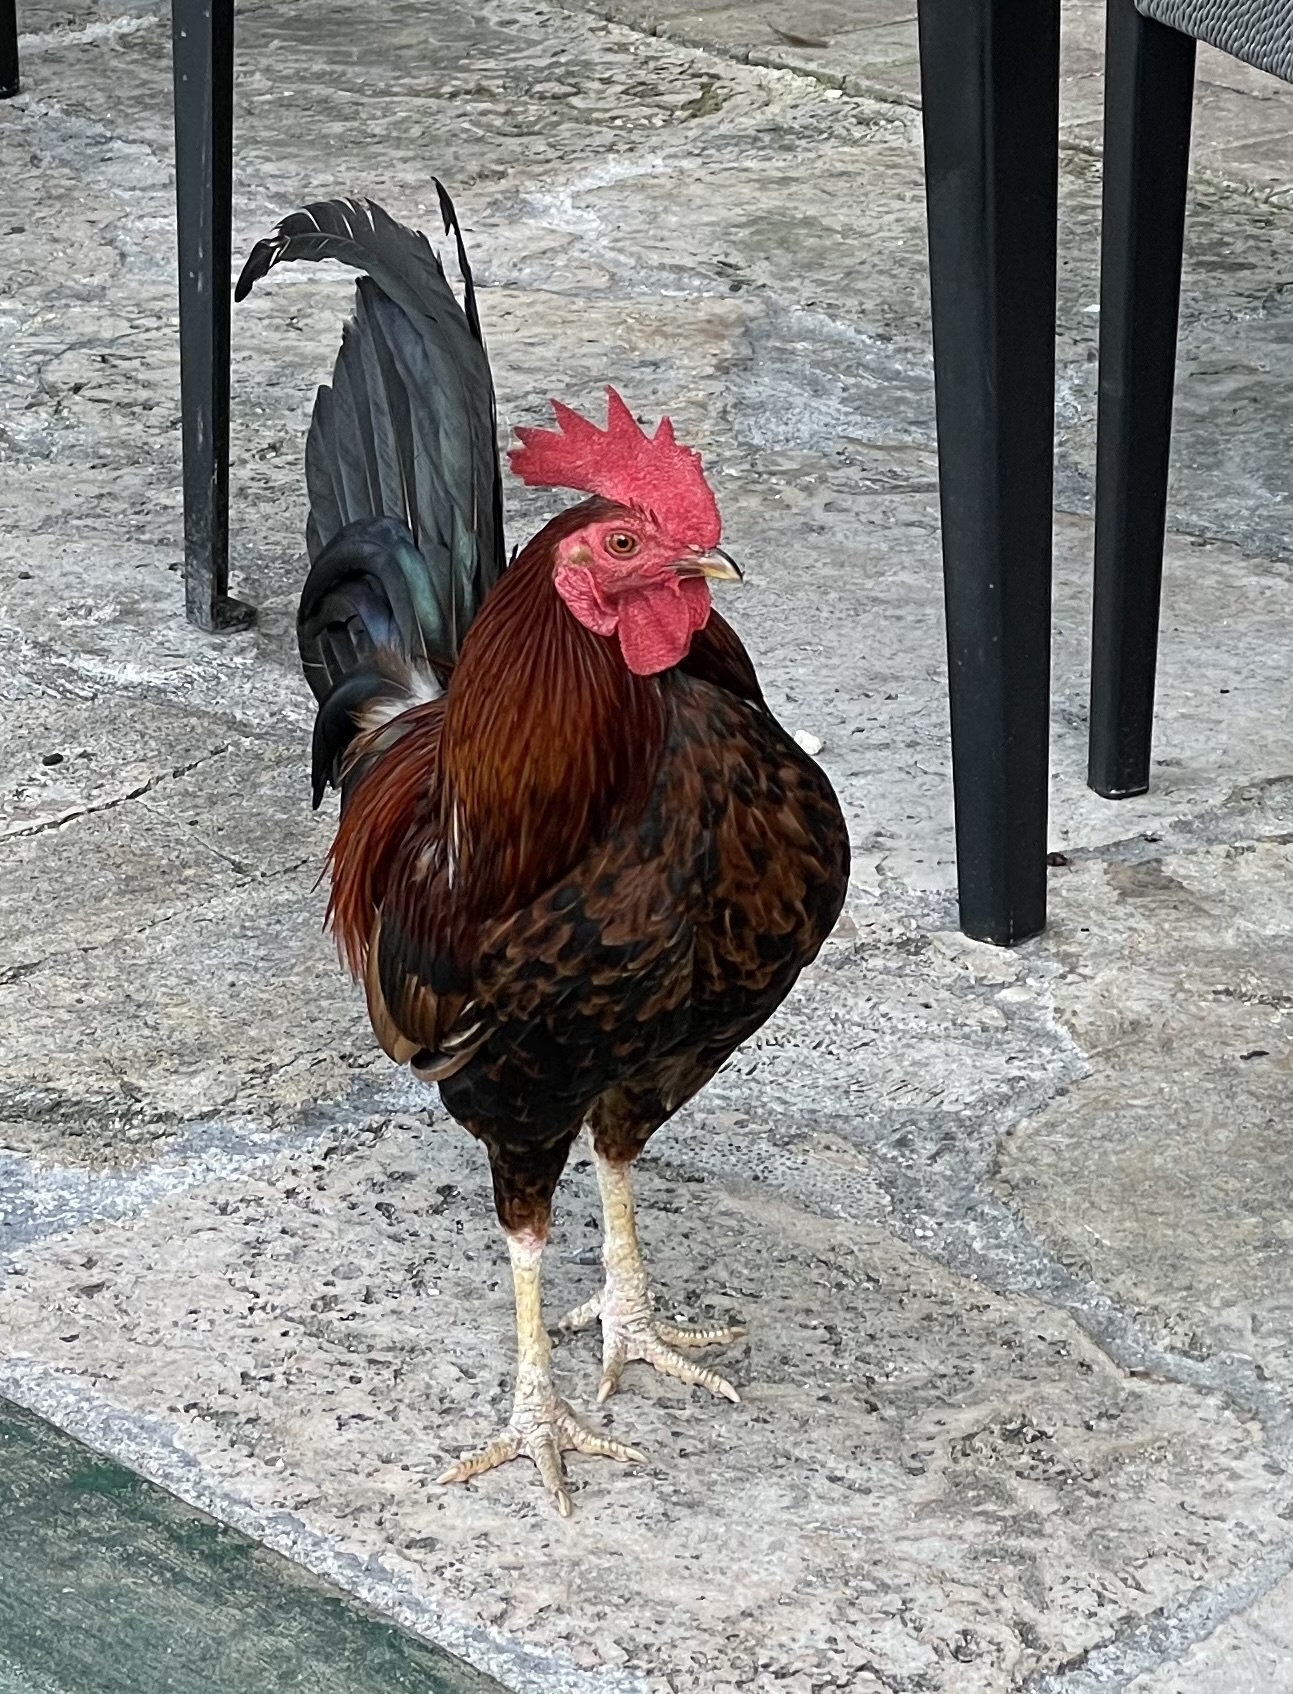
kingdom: Animalia
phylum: Chordata
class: Aves
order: Galliformes
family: Phasianidae
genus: Gallus
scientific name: Gallus gallus
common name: Red junglefowl
